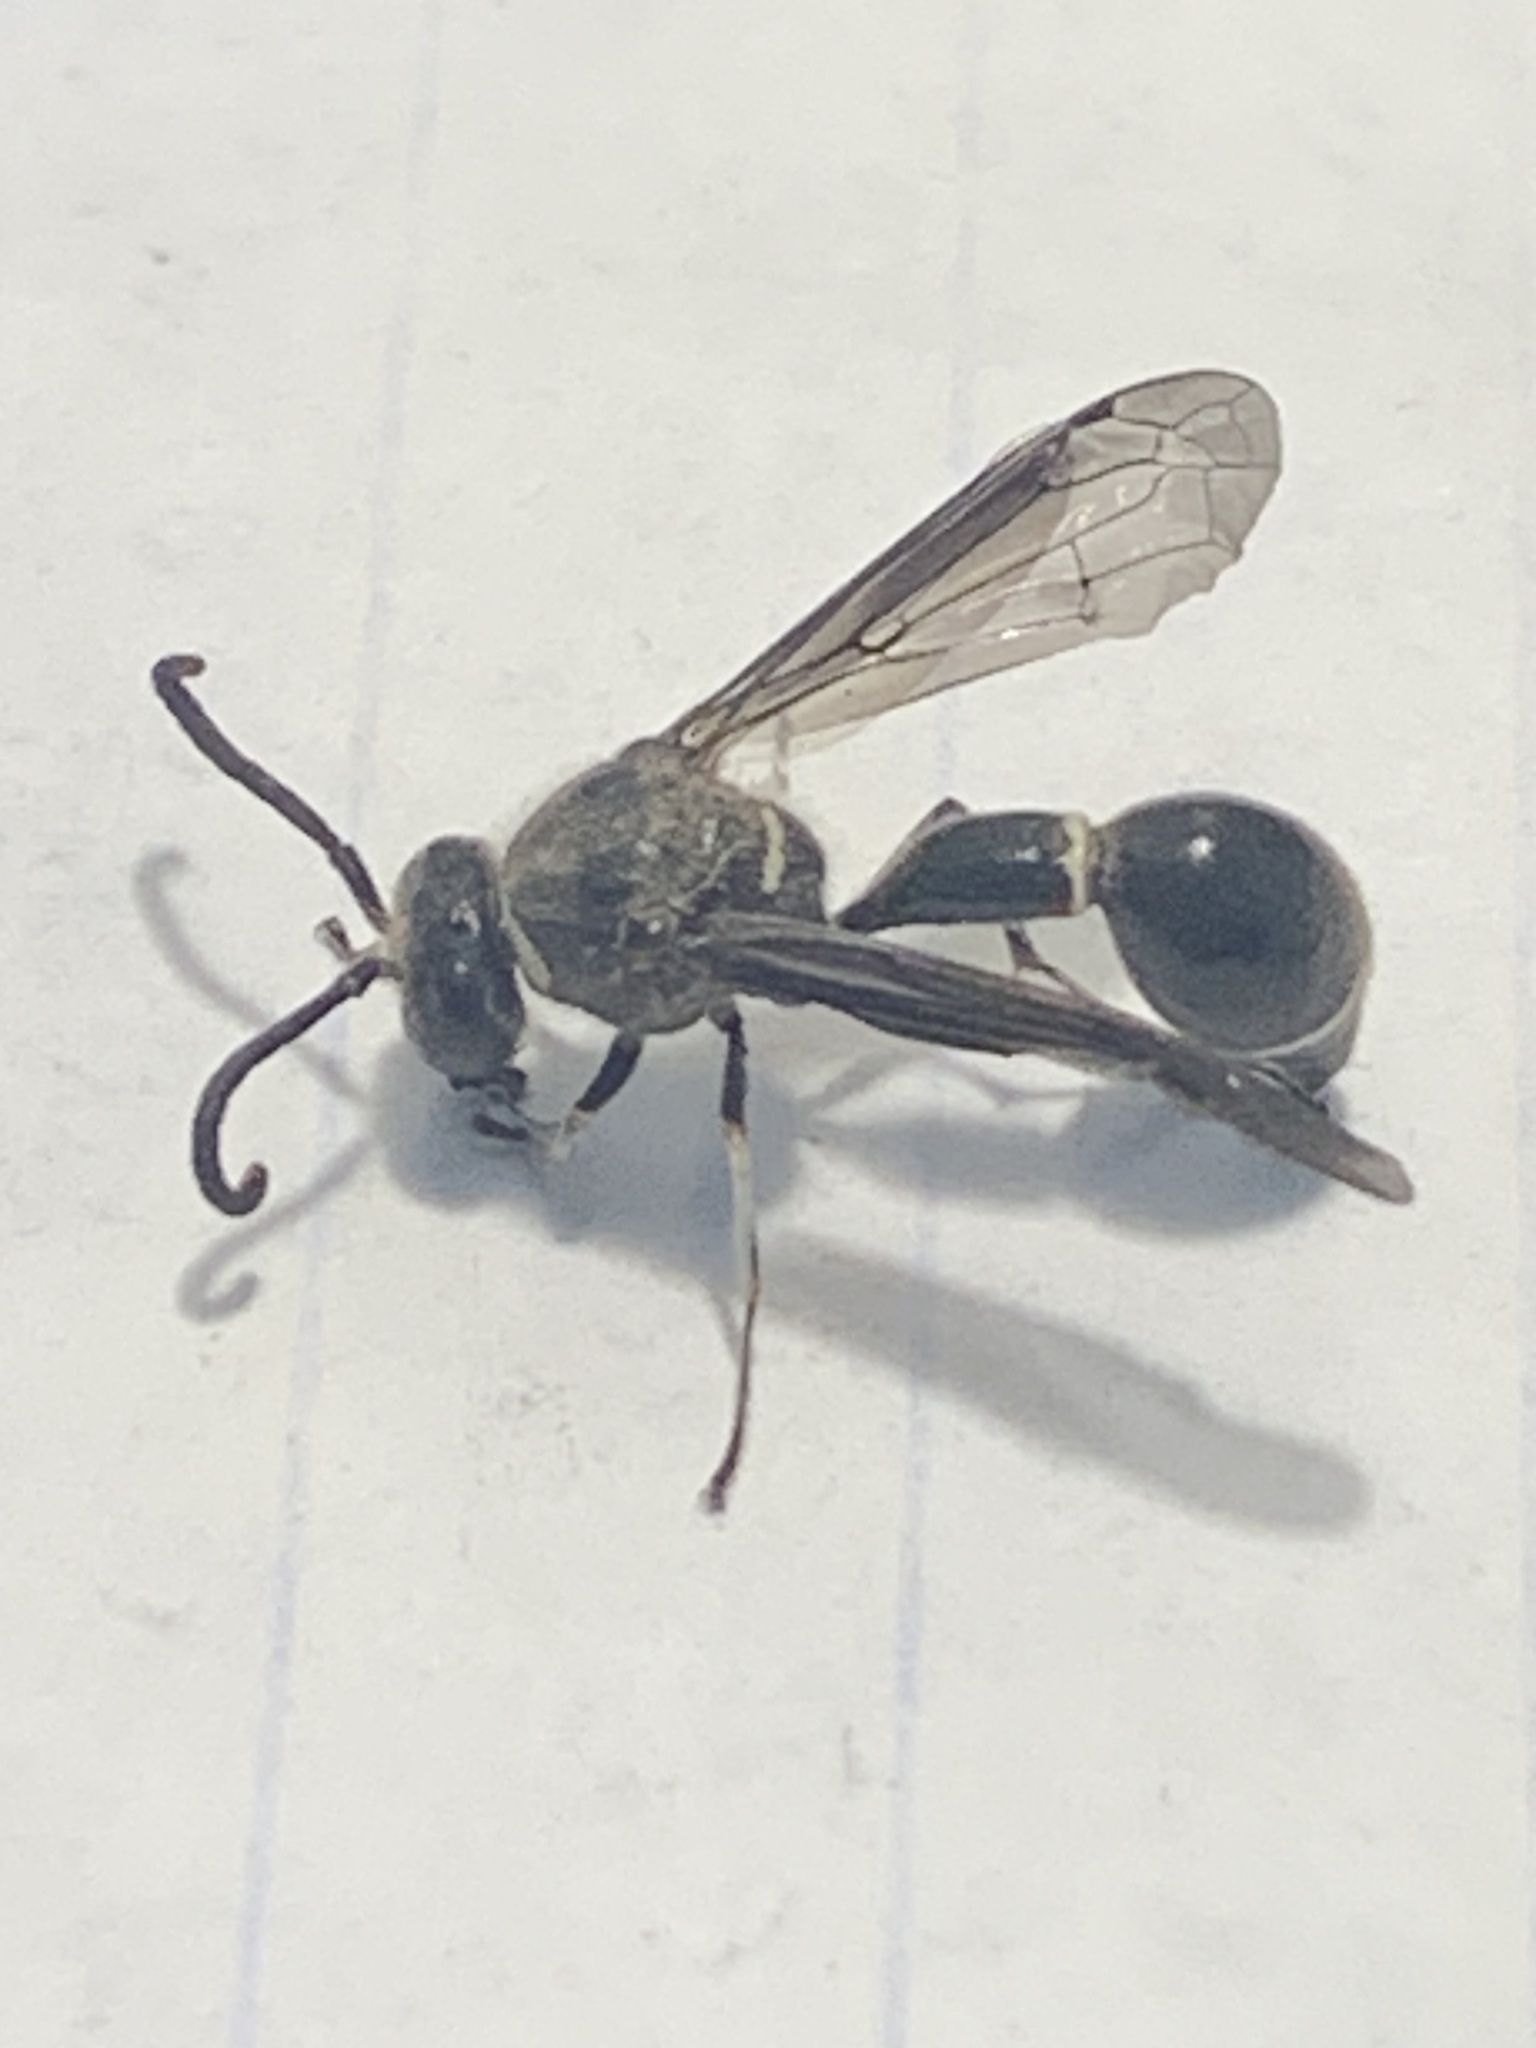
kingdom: Animalia
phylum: Arthropoda
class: Insecta
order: Hymenoptera
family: Vespidae
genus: Eumenes
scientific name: Eumenes fraternus
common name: Fraternal potter wasp
